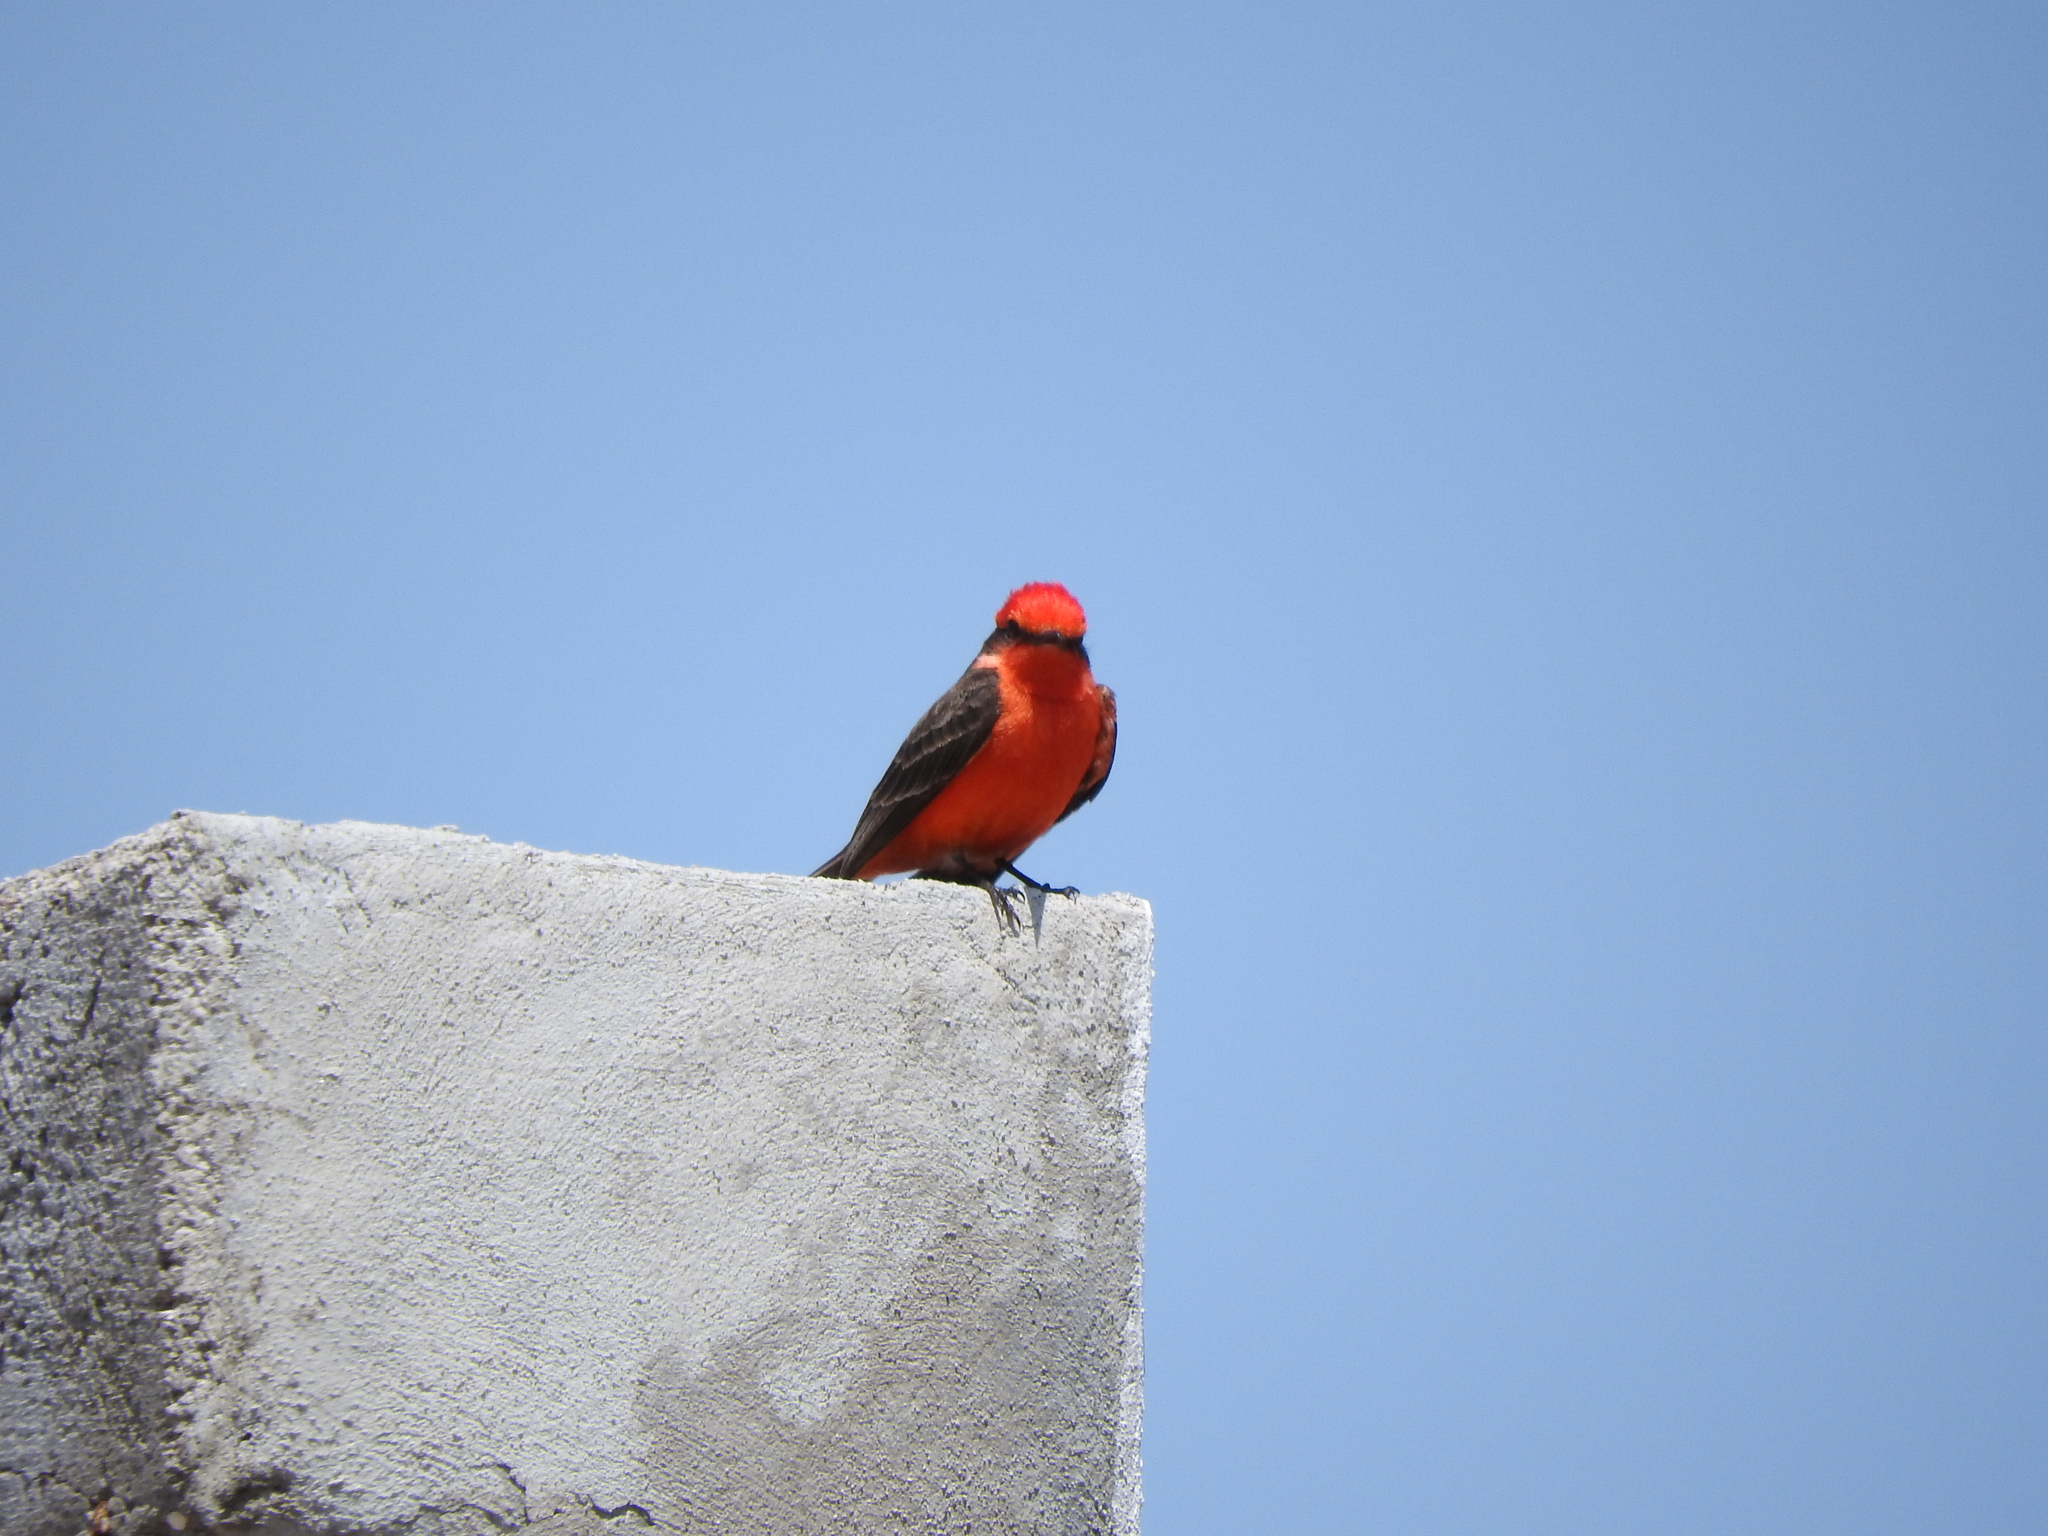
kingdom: Animalia
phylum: Chordata
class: Aves
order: Passeriformes
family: Tyrannidae
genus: Pyrocephalus
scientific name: Pyrocephalus rubinus
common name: Vermilion flycatcher
